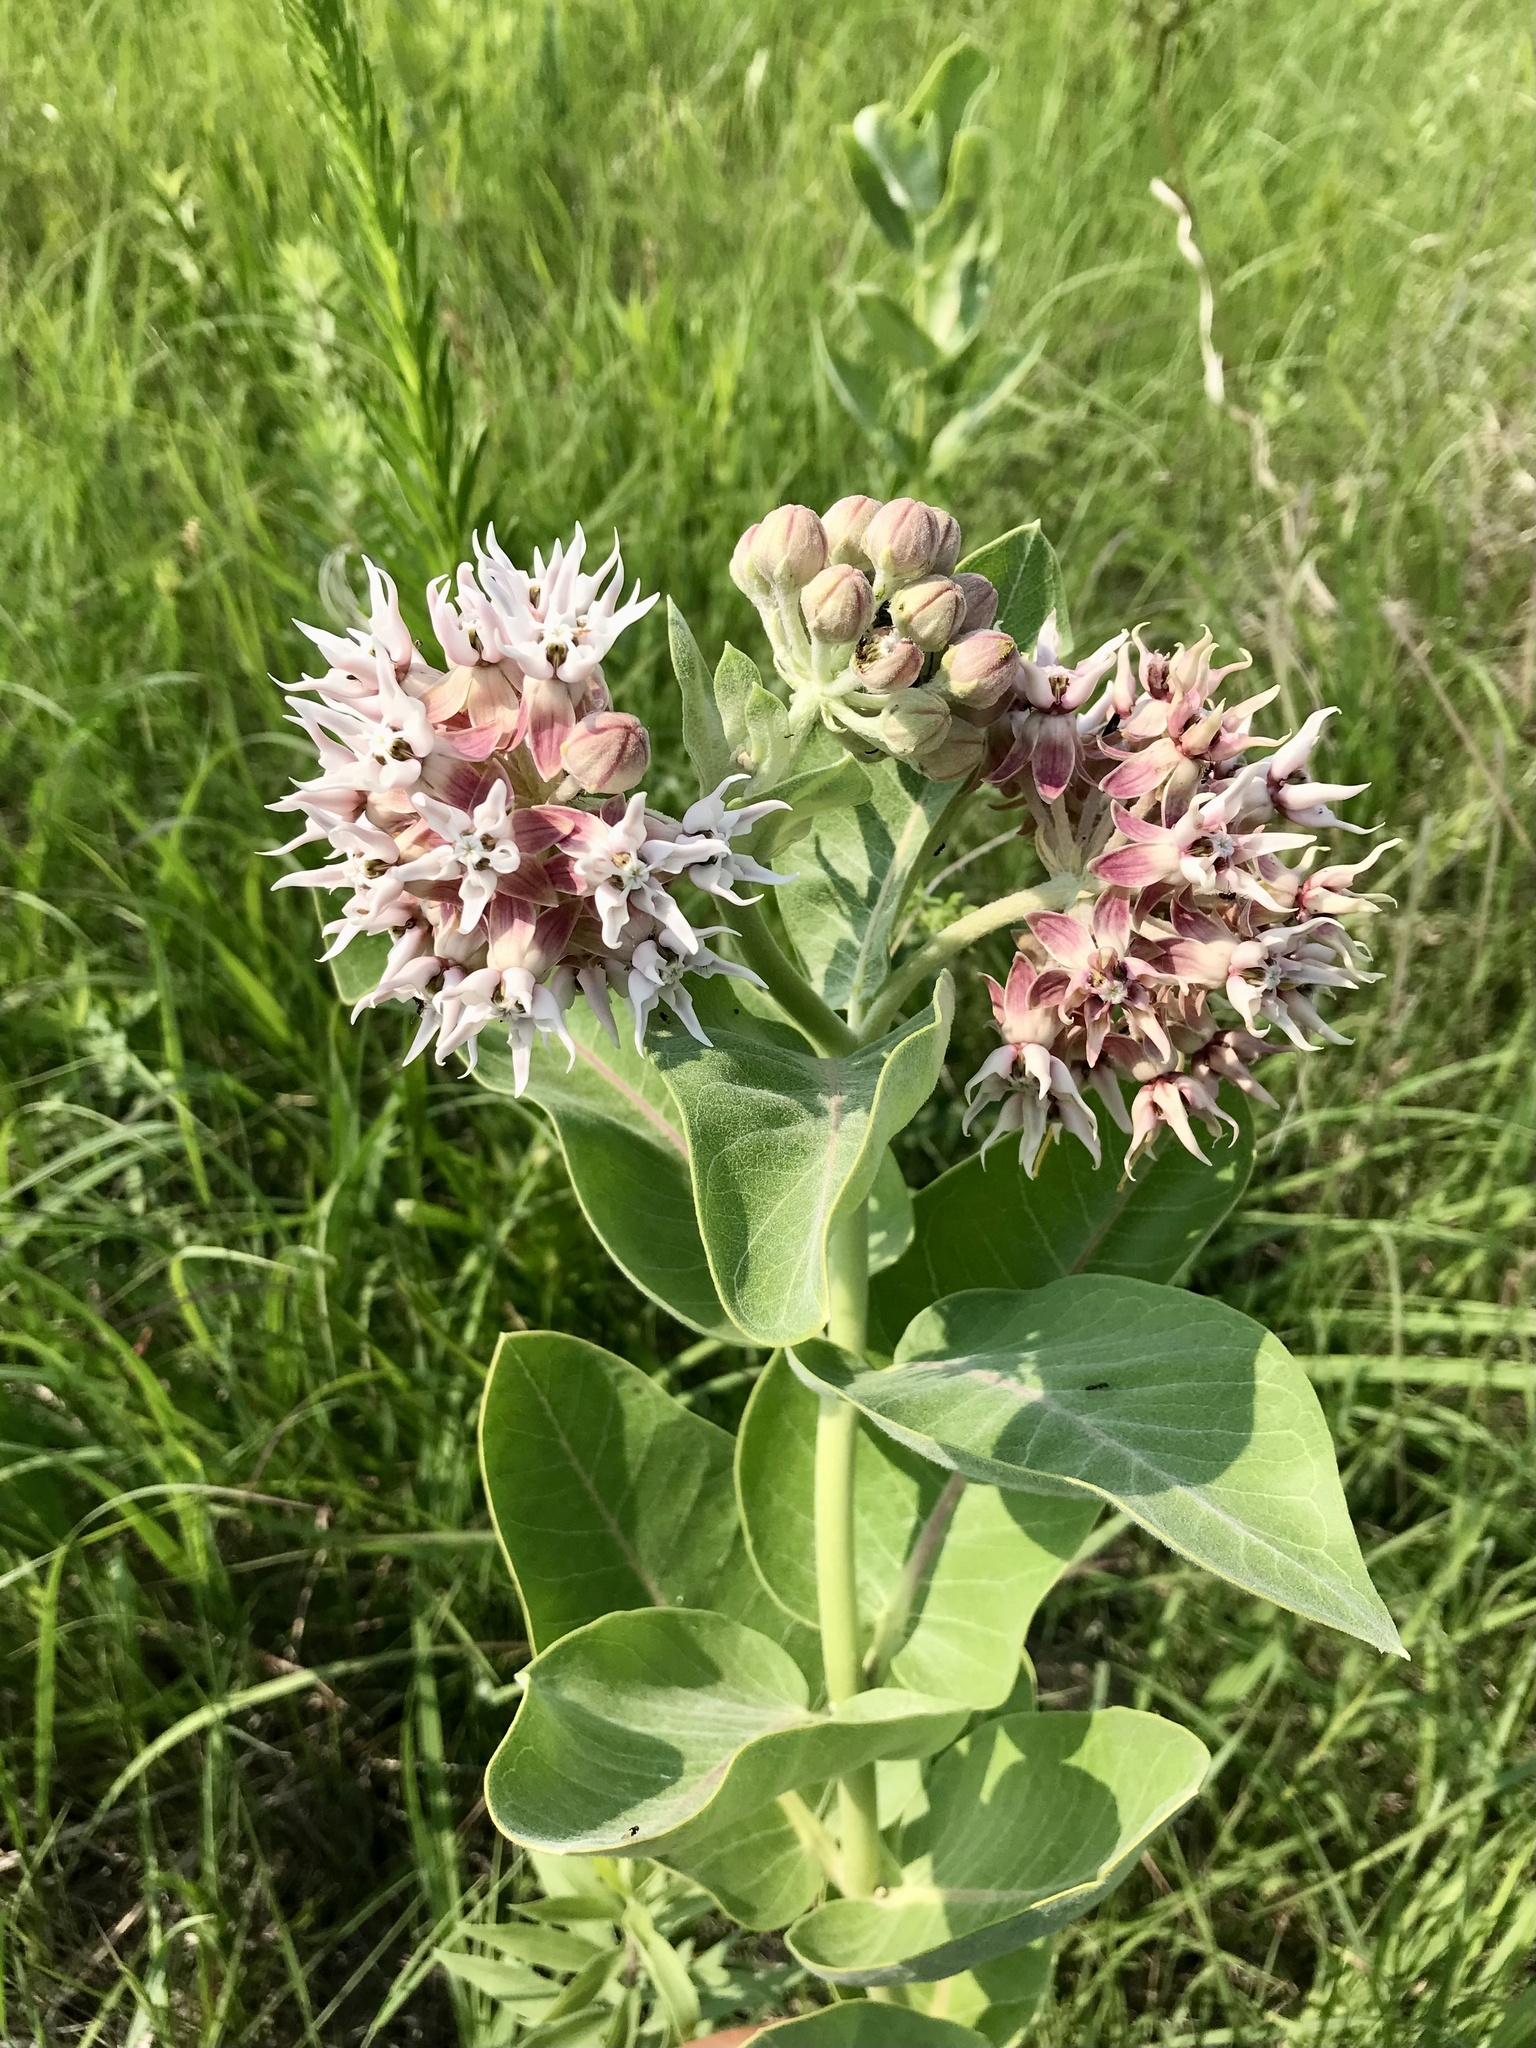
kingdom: Plantae
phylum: Tracheophyta
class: Magnoliopsida
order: Gentianales
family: Apocynaceae
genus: Asclepias
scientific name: Asclepias speciosa
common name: Showy milkweed
